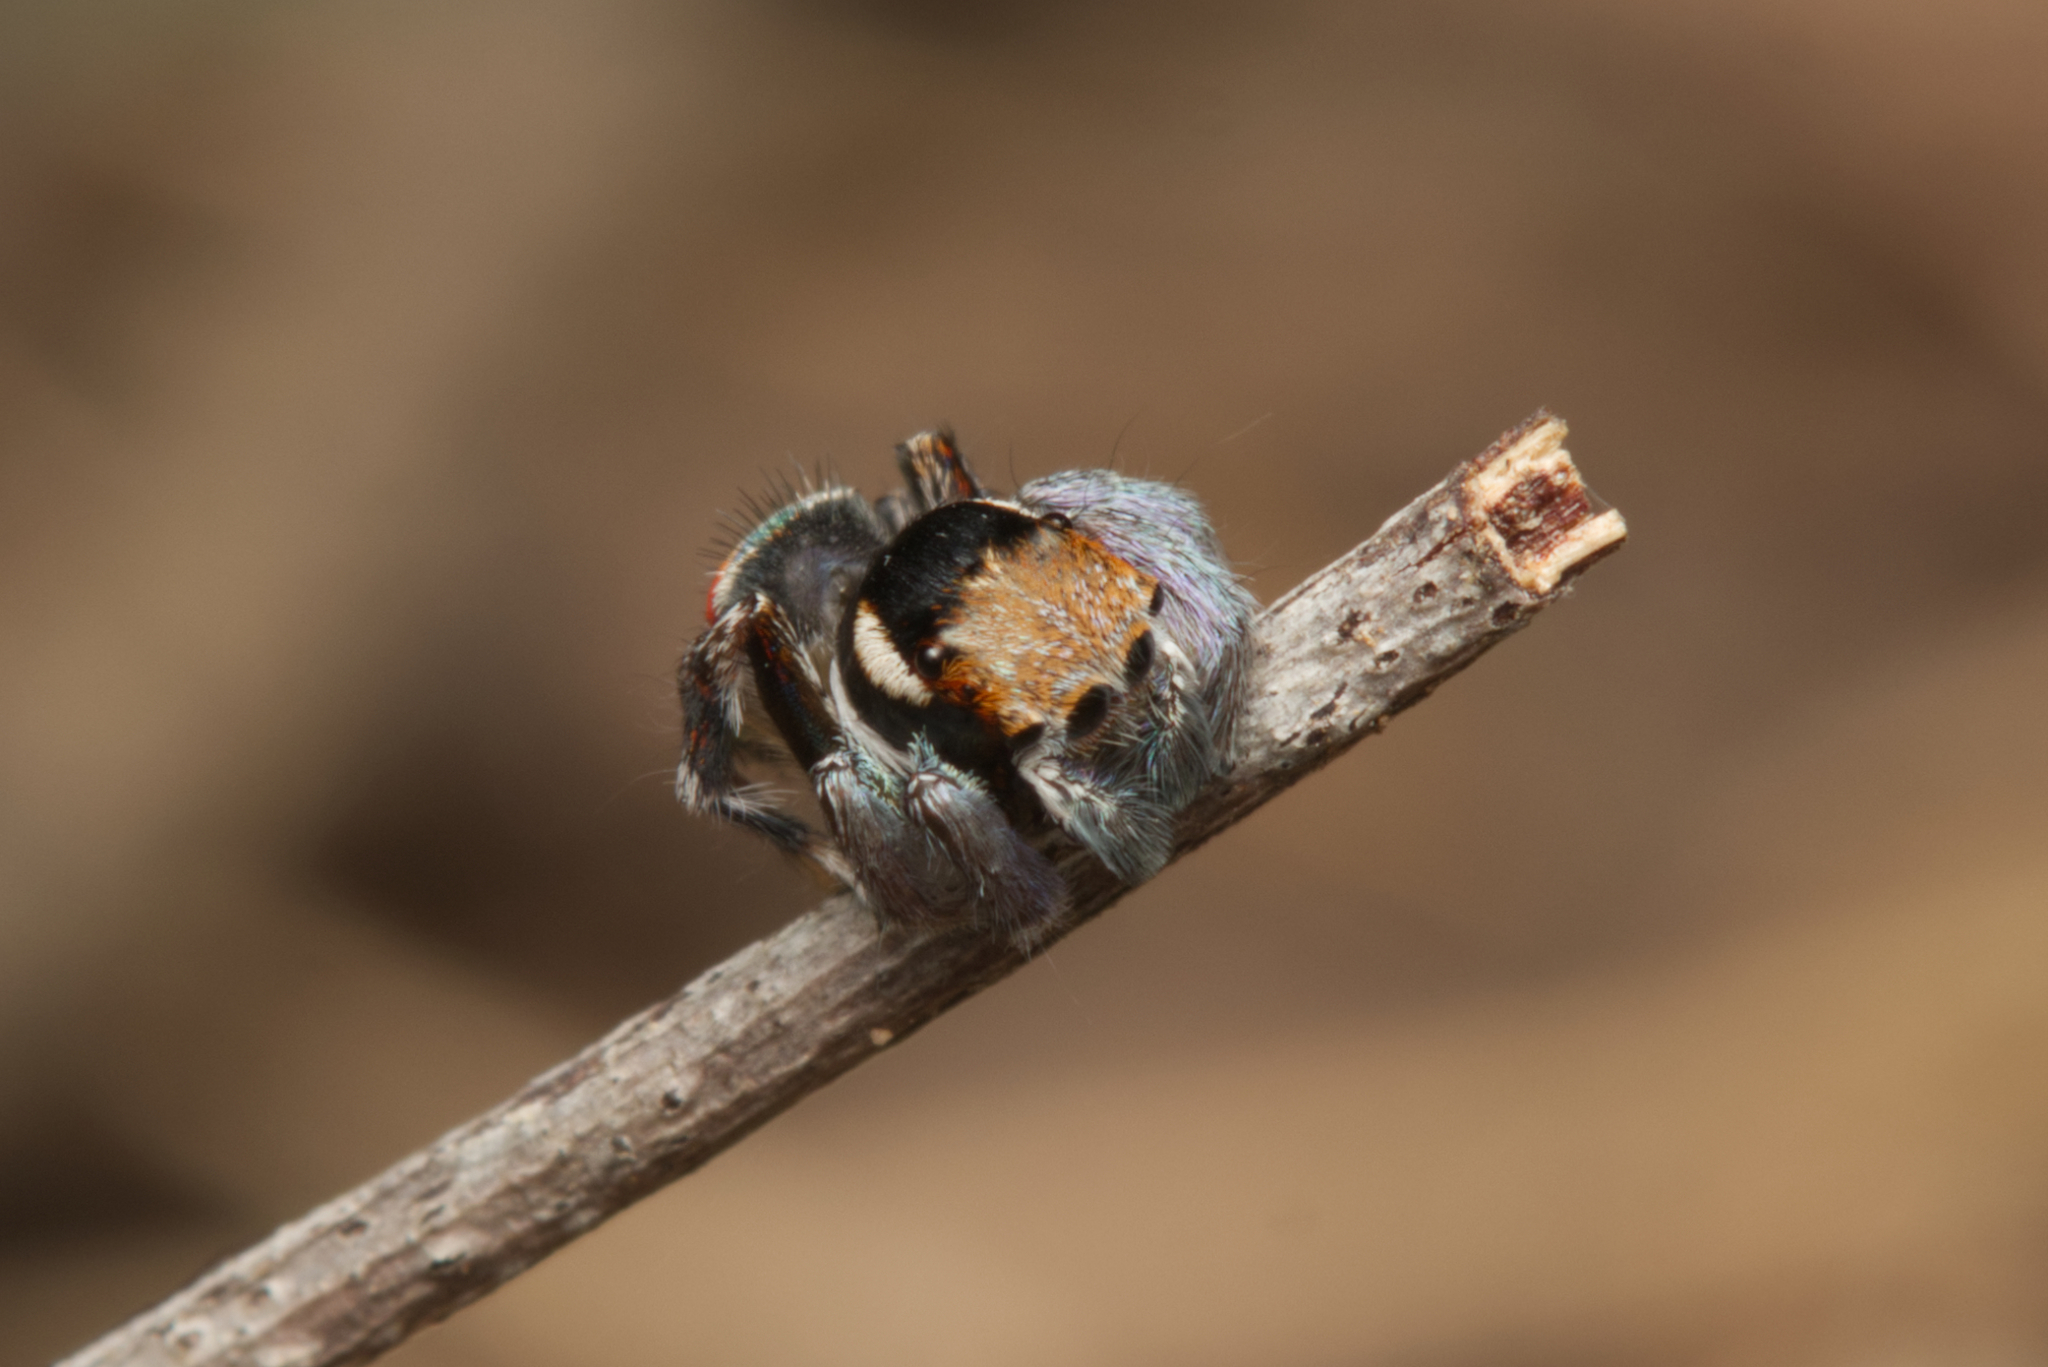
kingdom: Animalia
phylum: Arthropoda
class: Arachnida
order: Araneae
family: Salticidae
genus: Maratus
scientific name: Maratus ottoi
